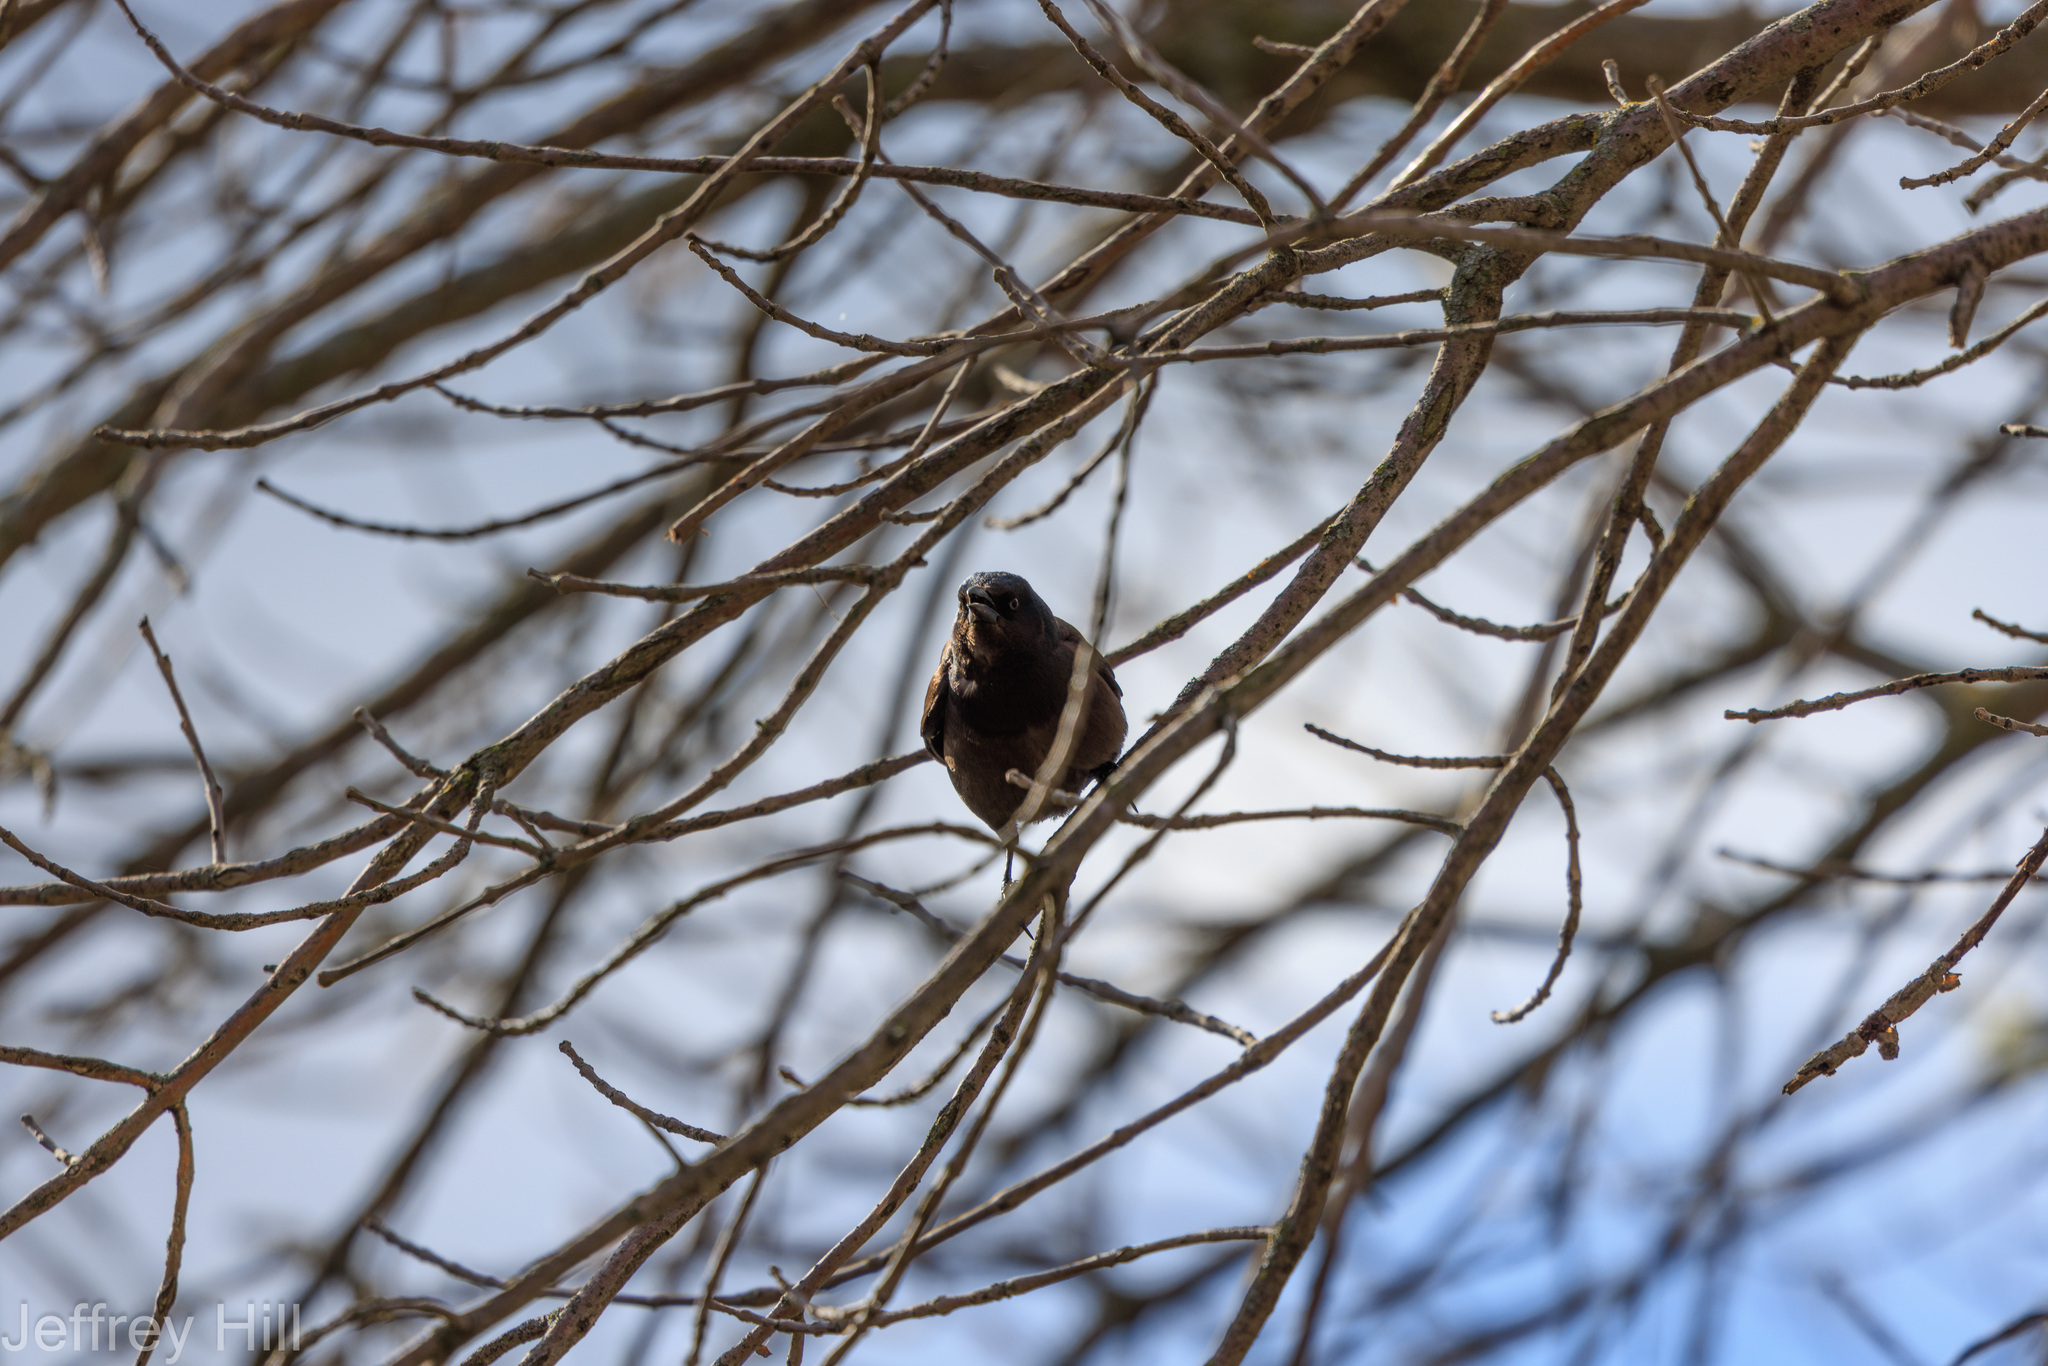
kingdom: Animalia
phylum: Chordata
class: Aves
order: Passeriformes
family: Icteridae
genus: Quiscalus
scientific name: Quiscalus quiscula
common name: Common grackle
